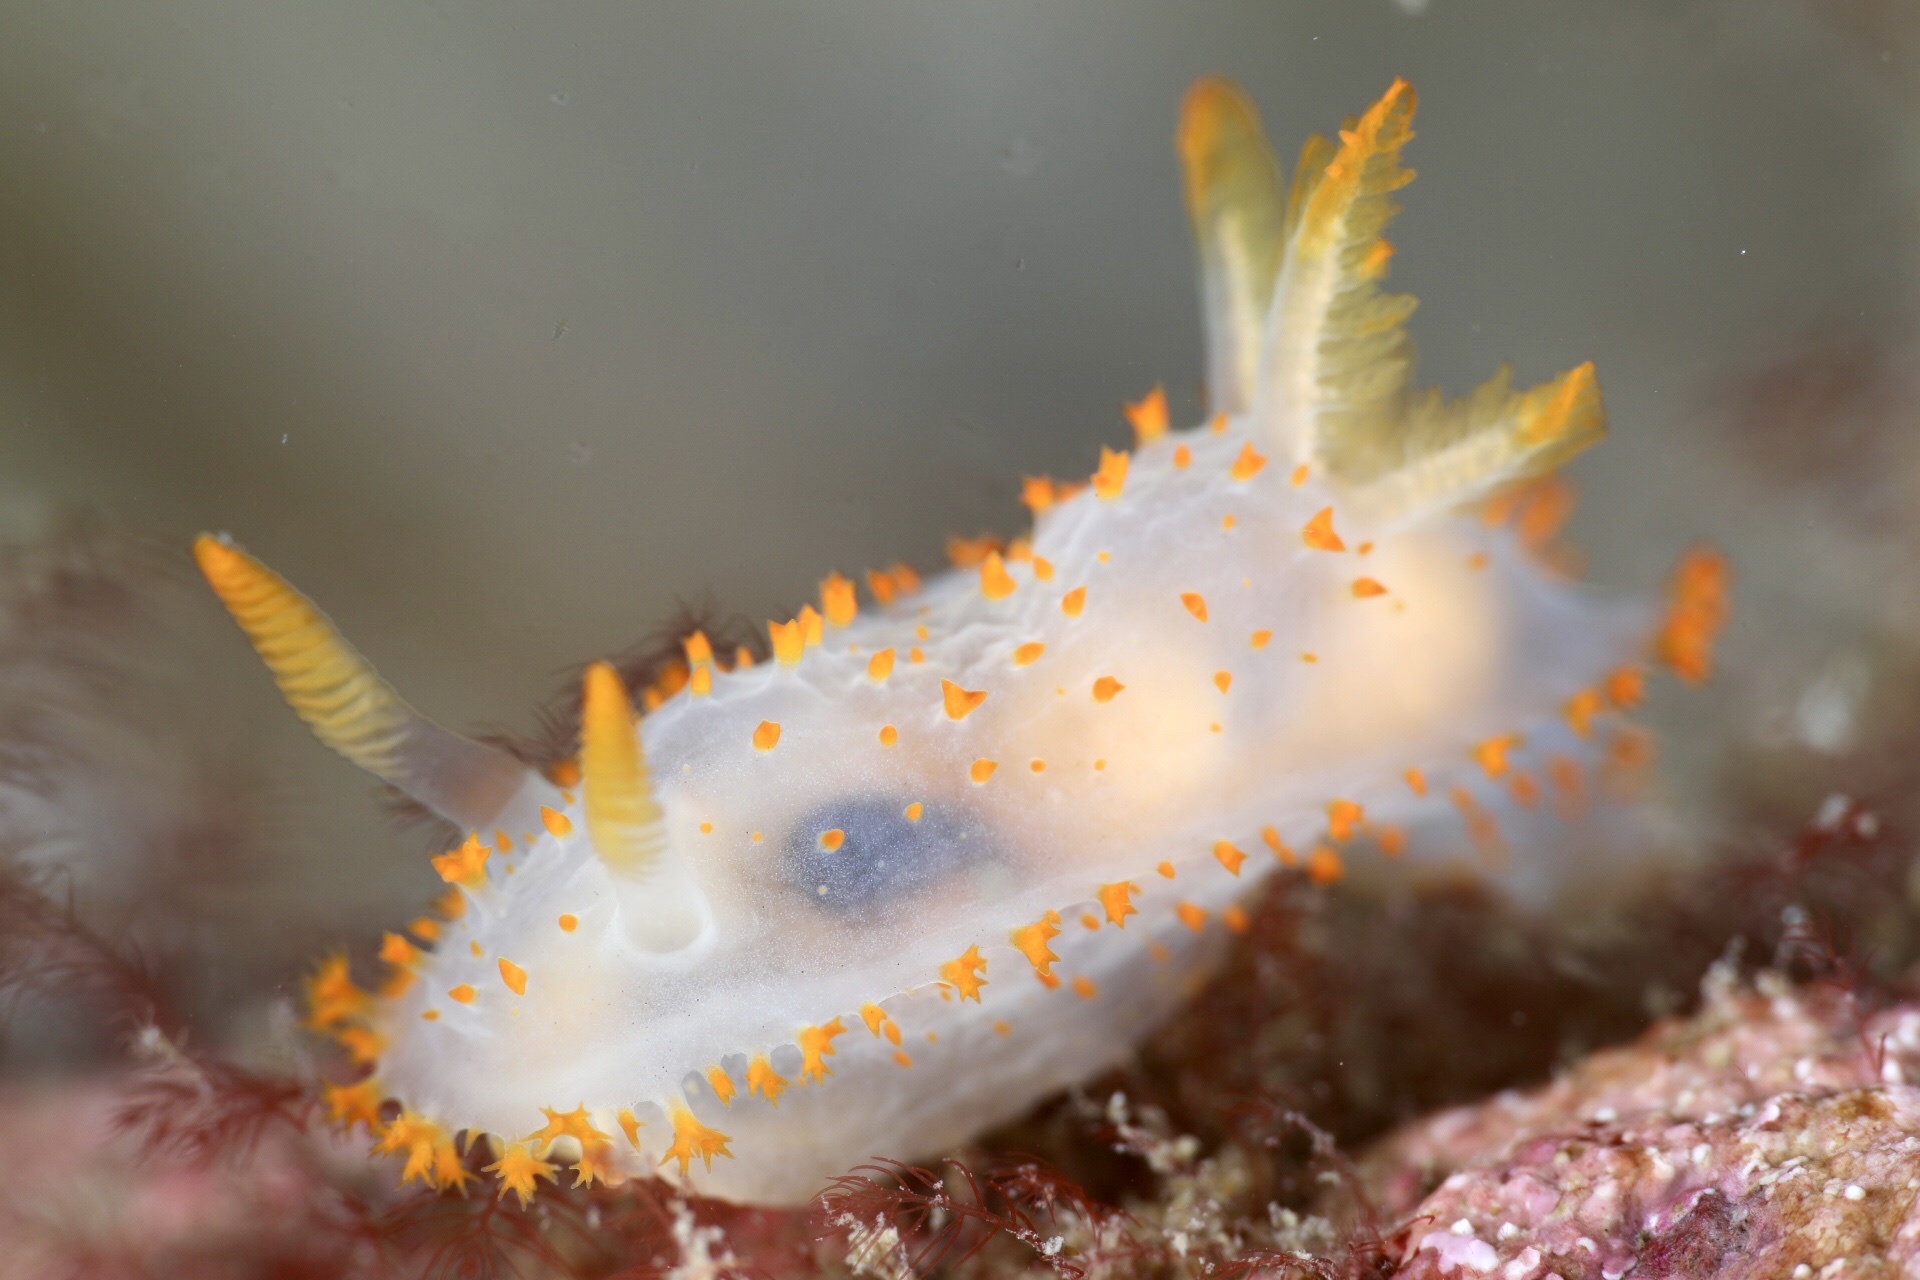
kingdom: Animalia
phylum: Mollusca
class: Gastropoda
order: Nudibranchia
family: Polyceridae
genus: Crimora
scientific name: Crimora papillata
